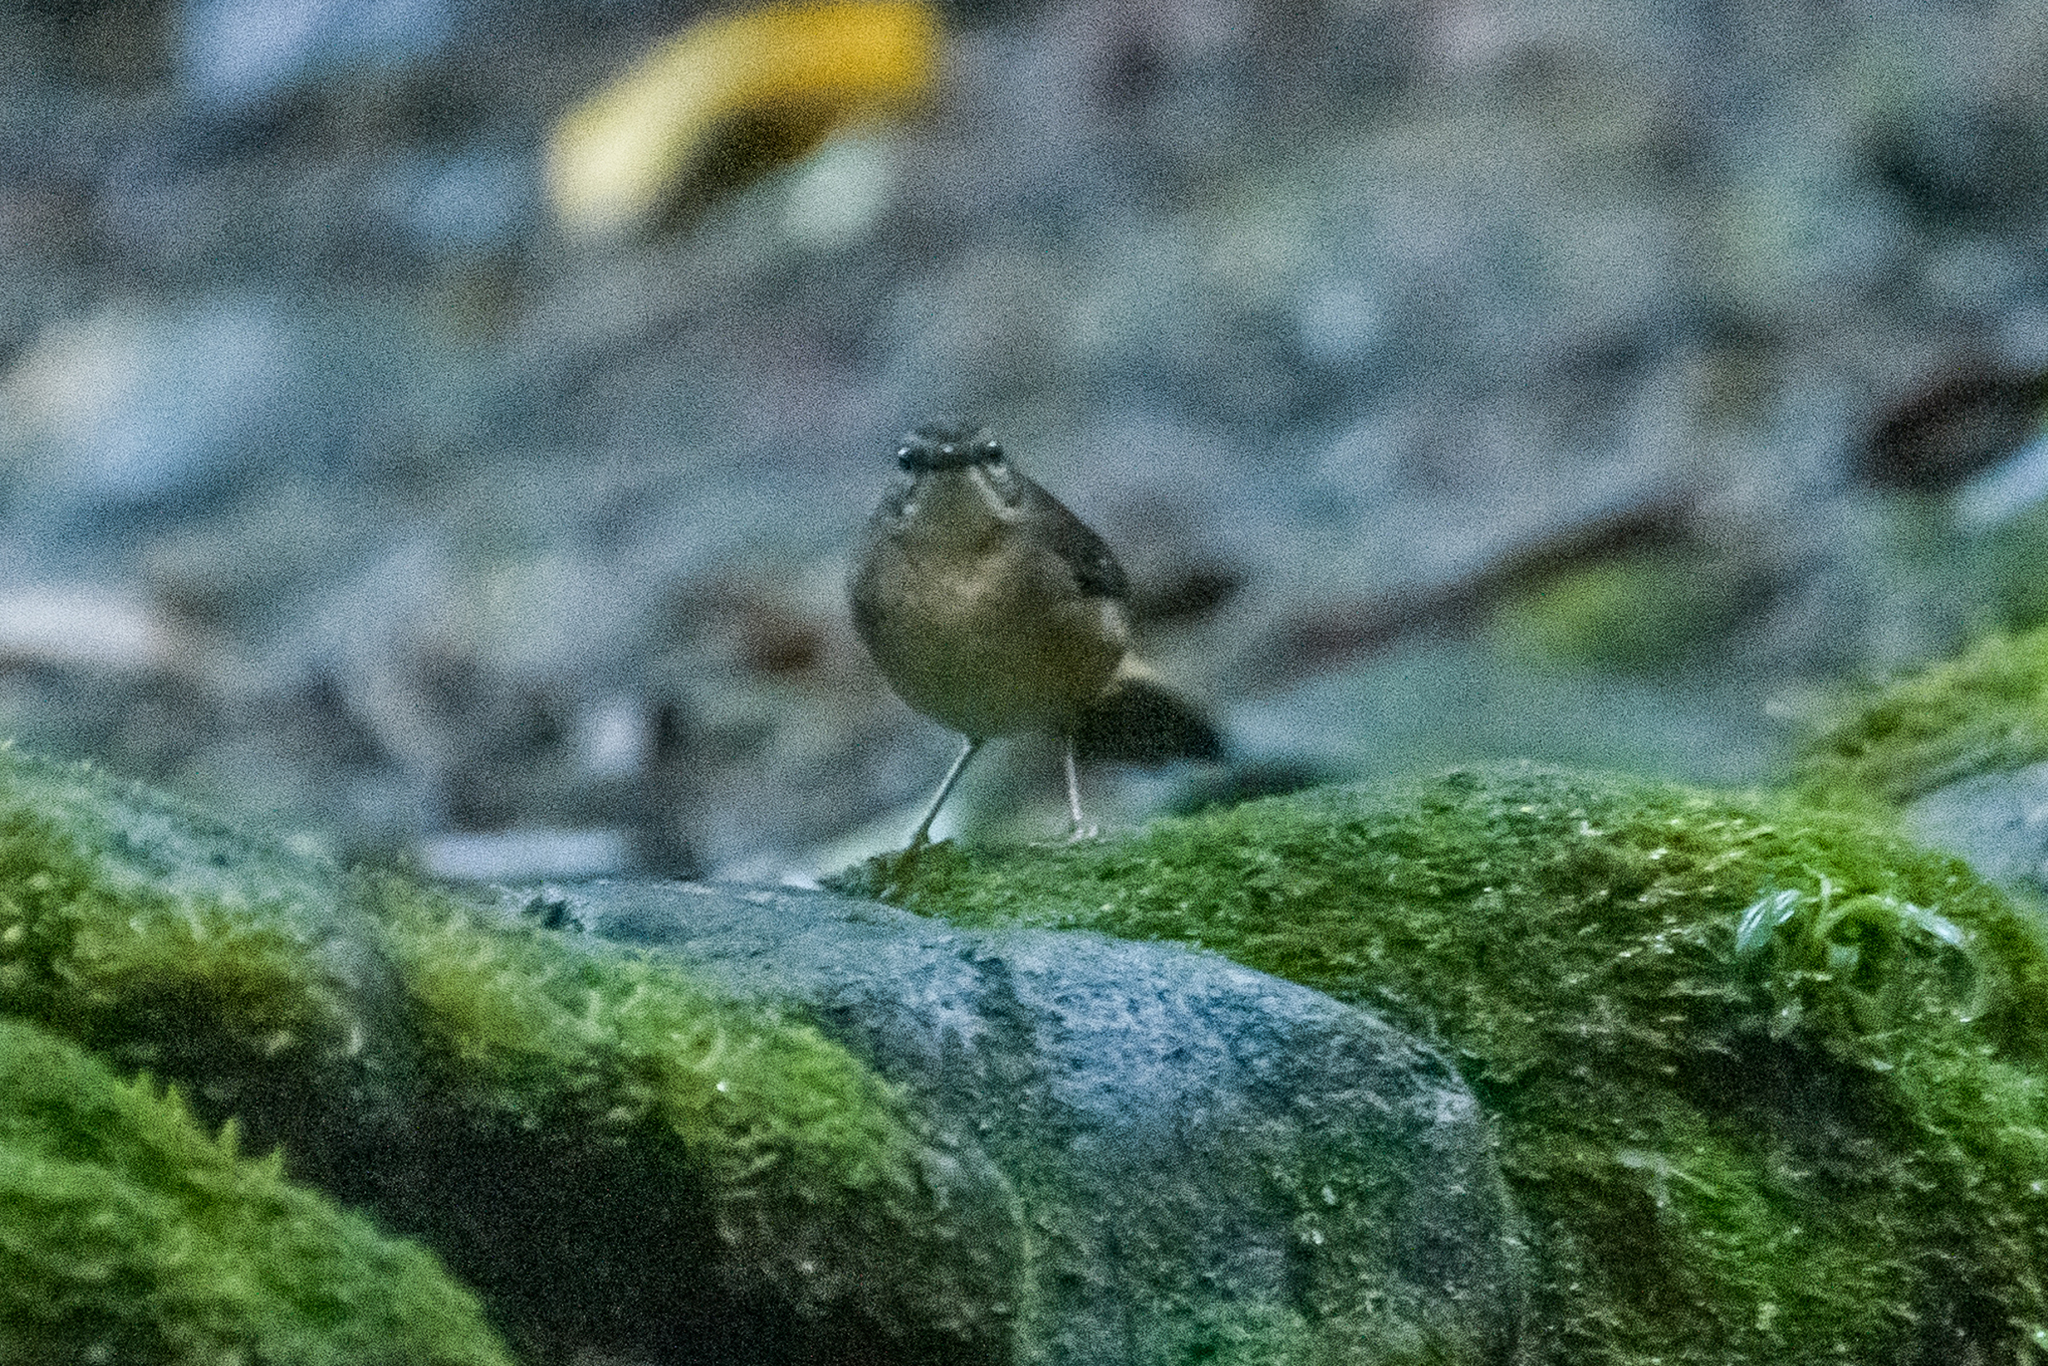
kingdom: Animalia
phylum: Chordata
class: Aves
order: Passeriformes
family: Parulidae
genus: Myiothlypis
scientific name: Myiothlypis fulvicauda
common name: Buff-rumped warbler
